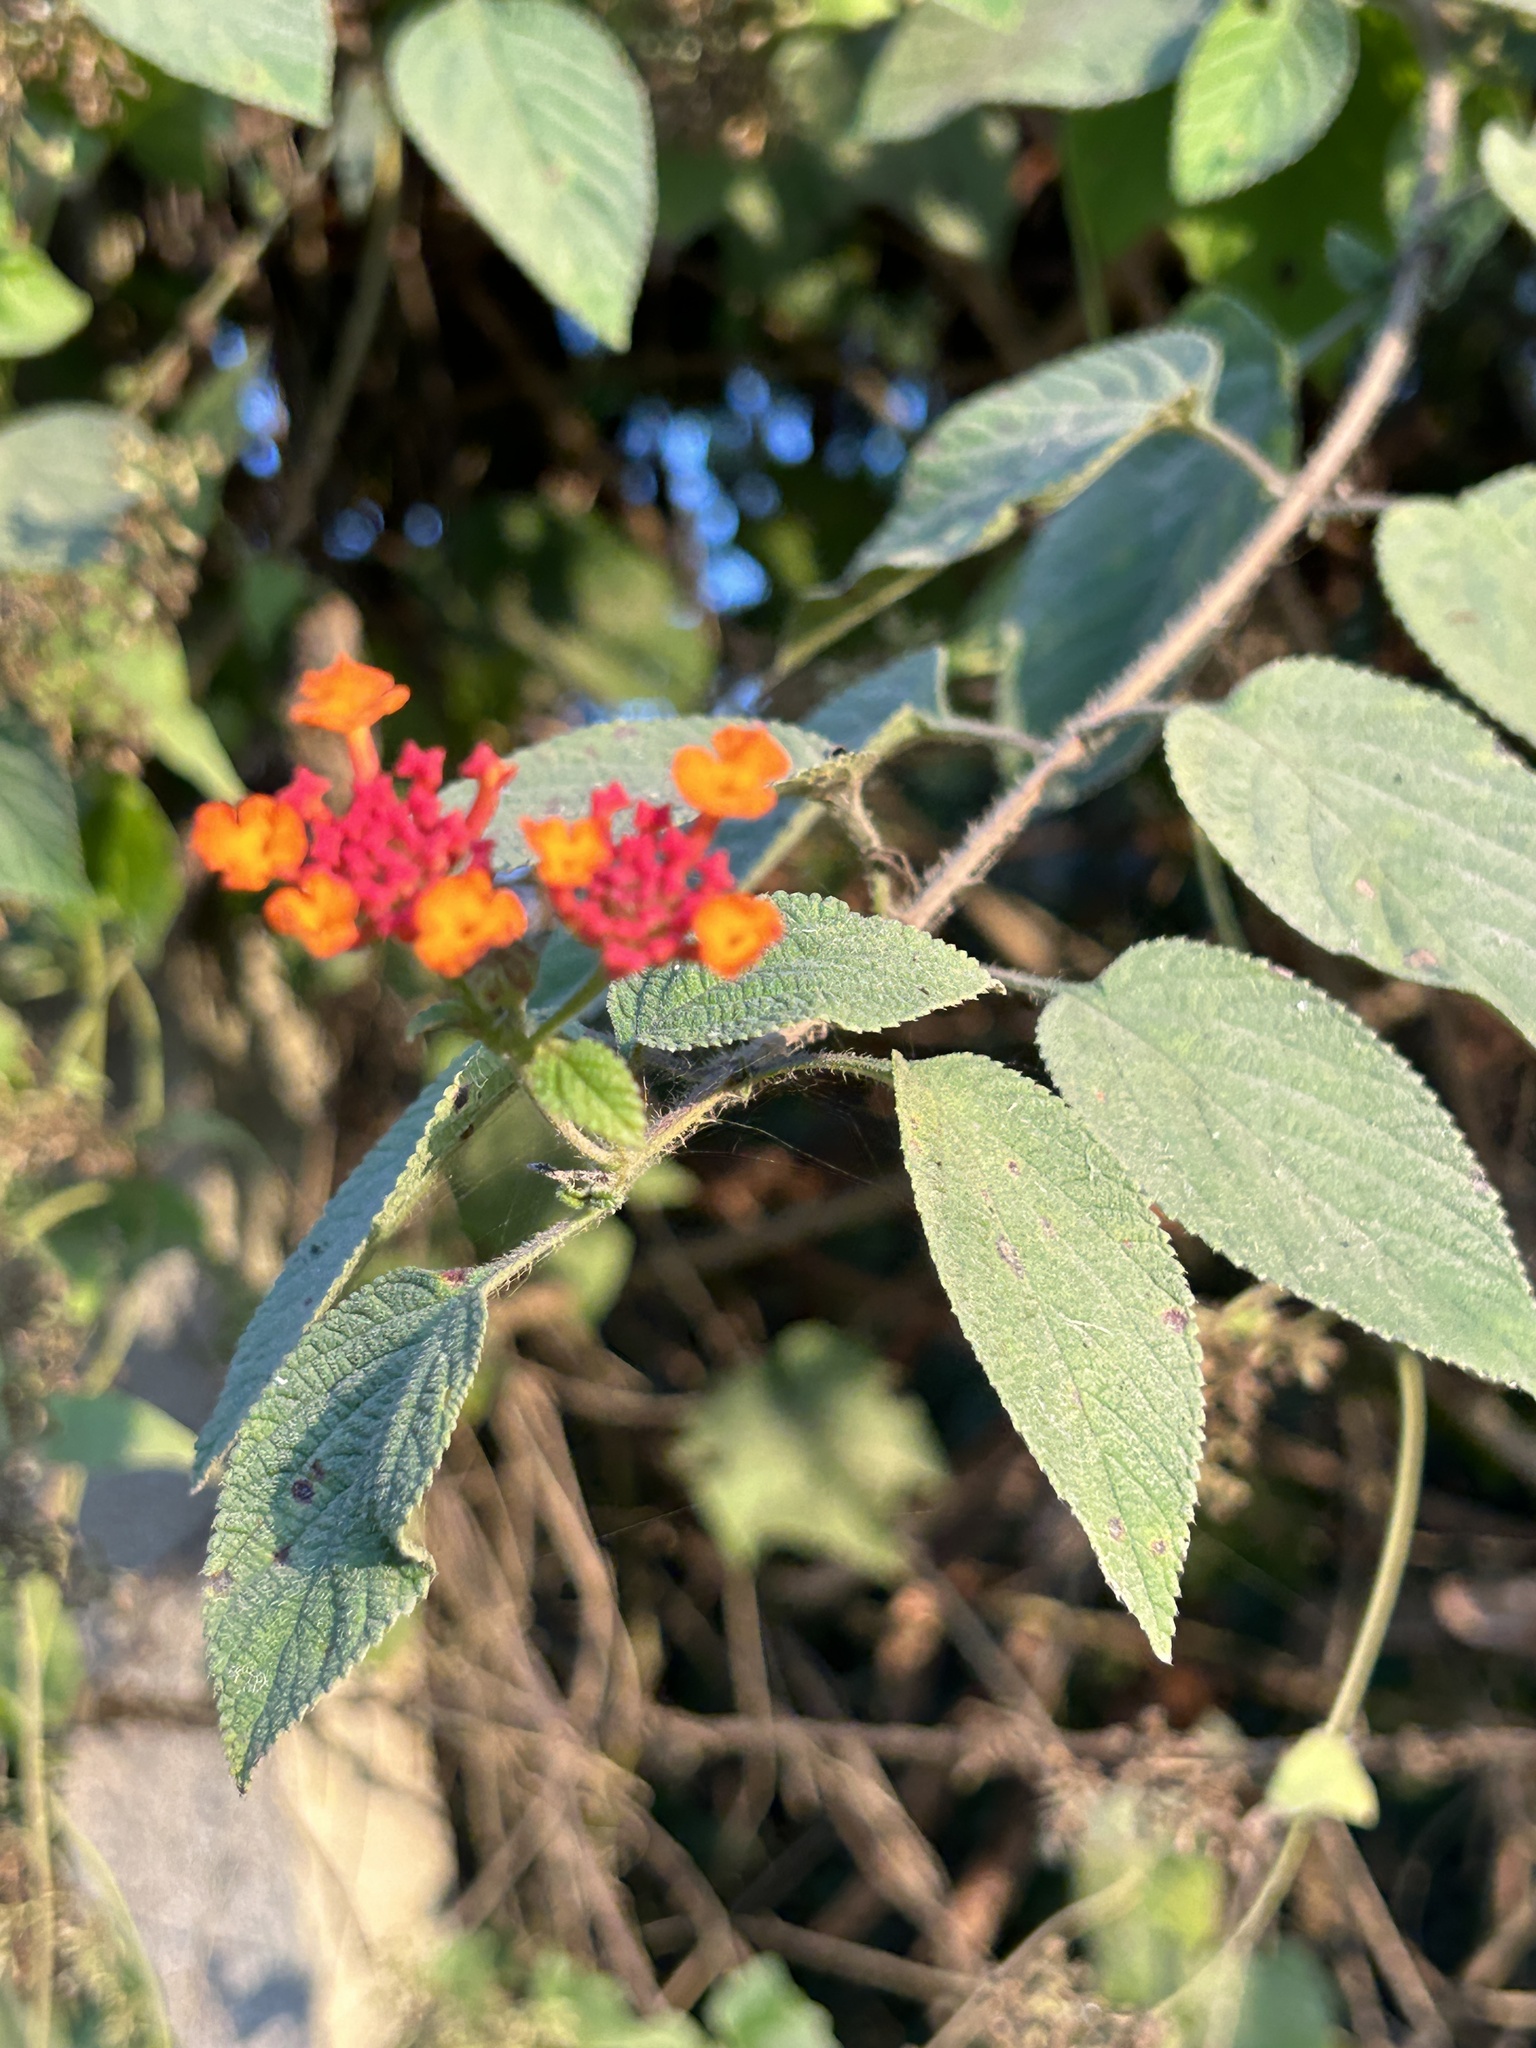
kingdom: Plantae
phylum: Tracheophyta
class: Magnoliopsida
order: Lamiales
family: Verbenaceae
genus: Lantana
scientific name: Lantana camara
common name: Lantana
